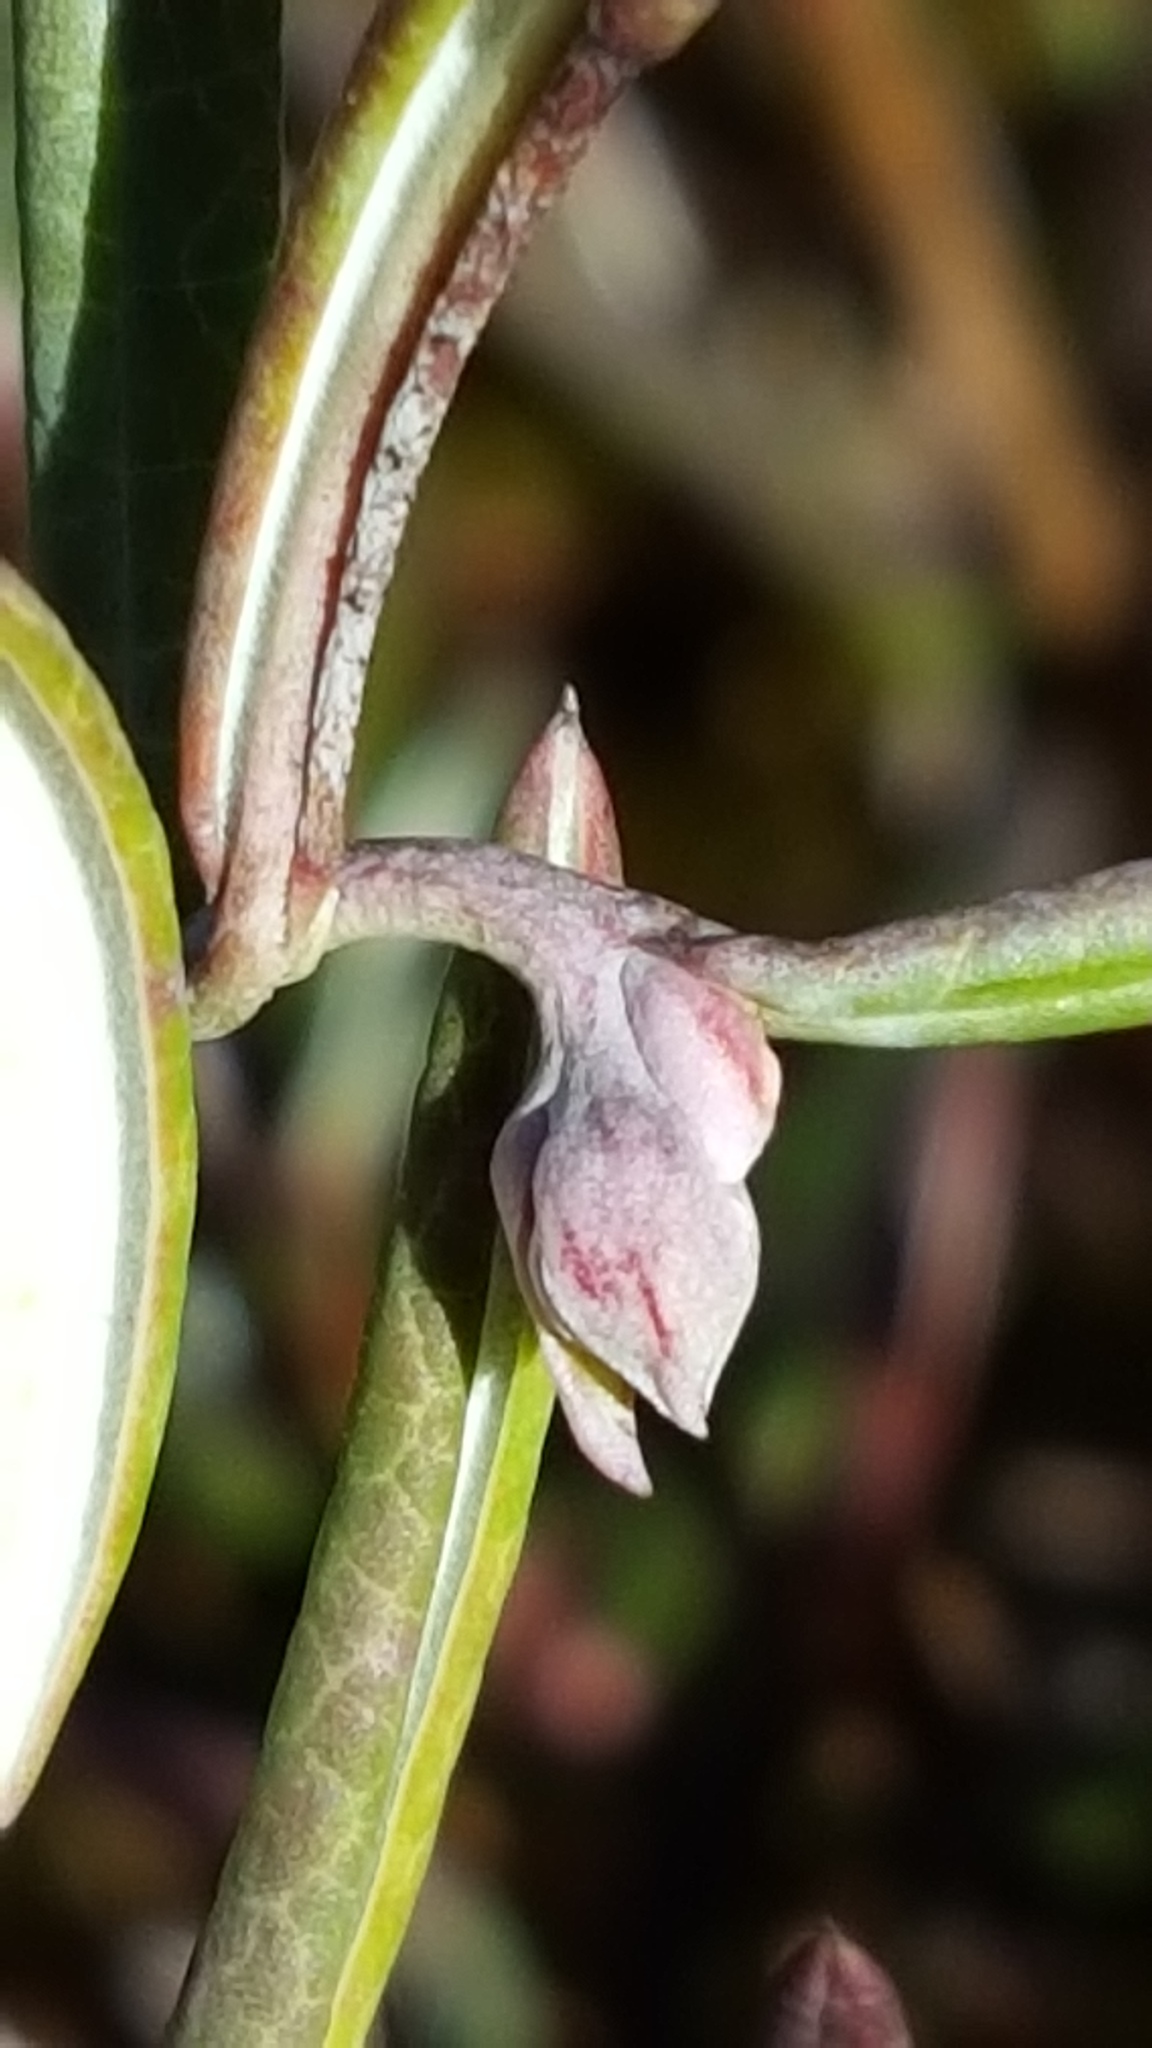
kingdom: Plantae
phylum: Tracheophyta
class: Magnoliopsida
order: Ericales
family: Ericaceae
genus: Andromeda
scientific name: Andromeda polifolia
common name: Bog-rosemary
